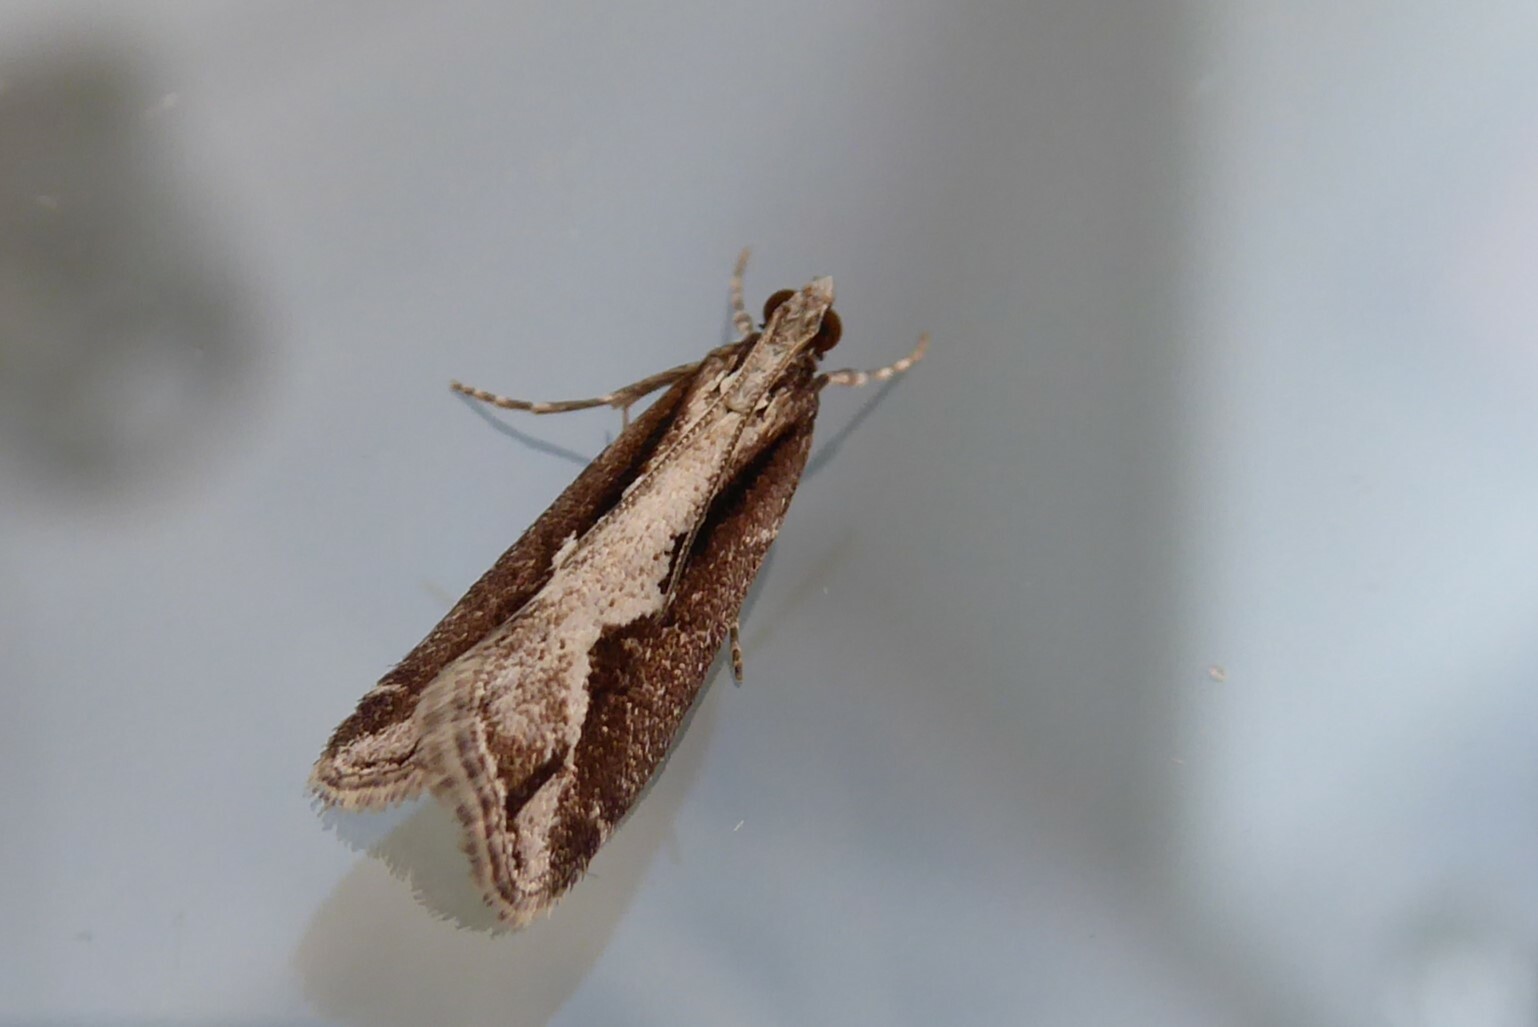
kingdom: Animalia
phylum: Arthropoda
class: Insecta
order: Lepidoptera
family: Crambidae
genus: Eudonia
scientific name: Eudonia steropaea
